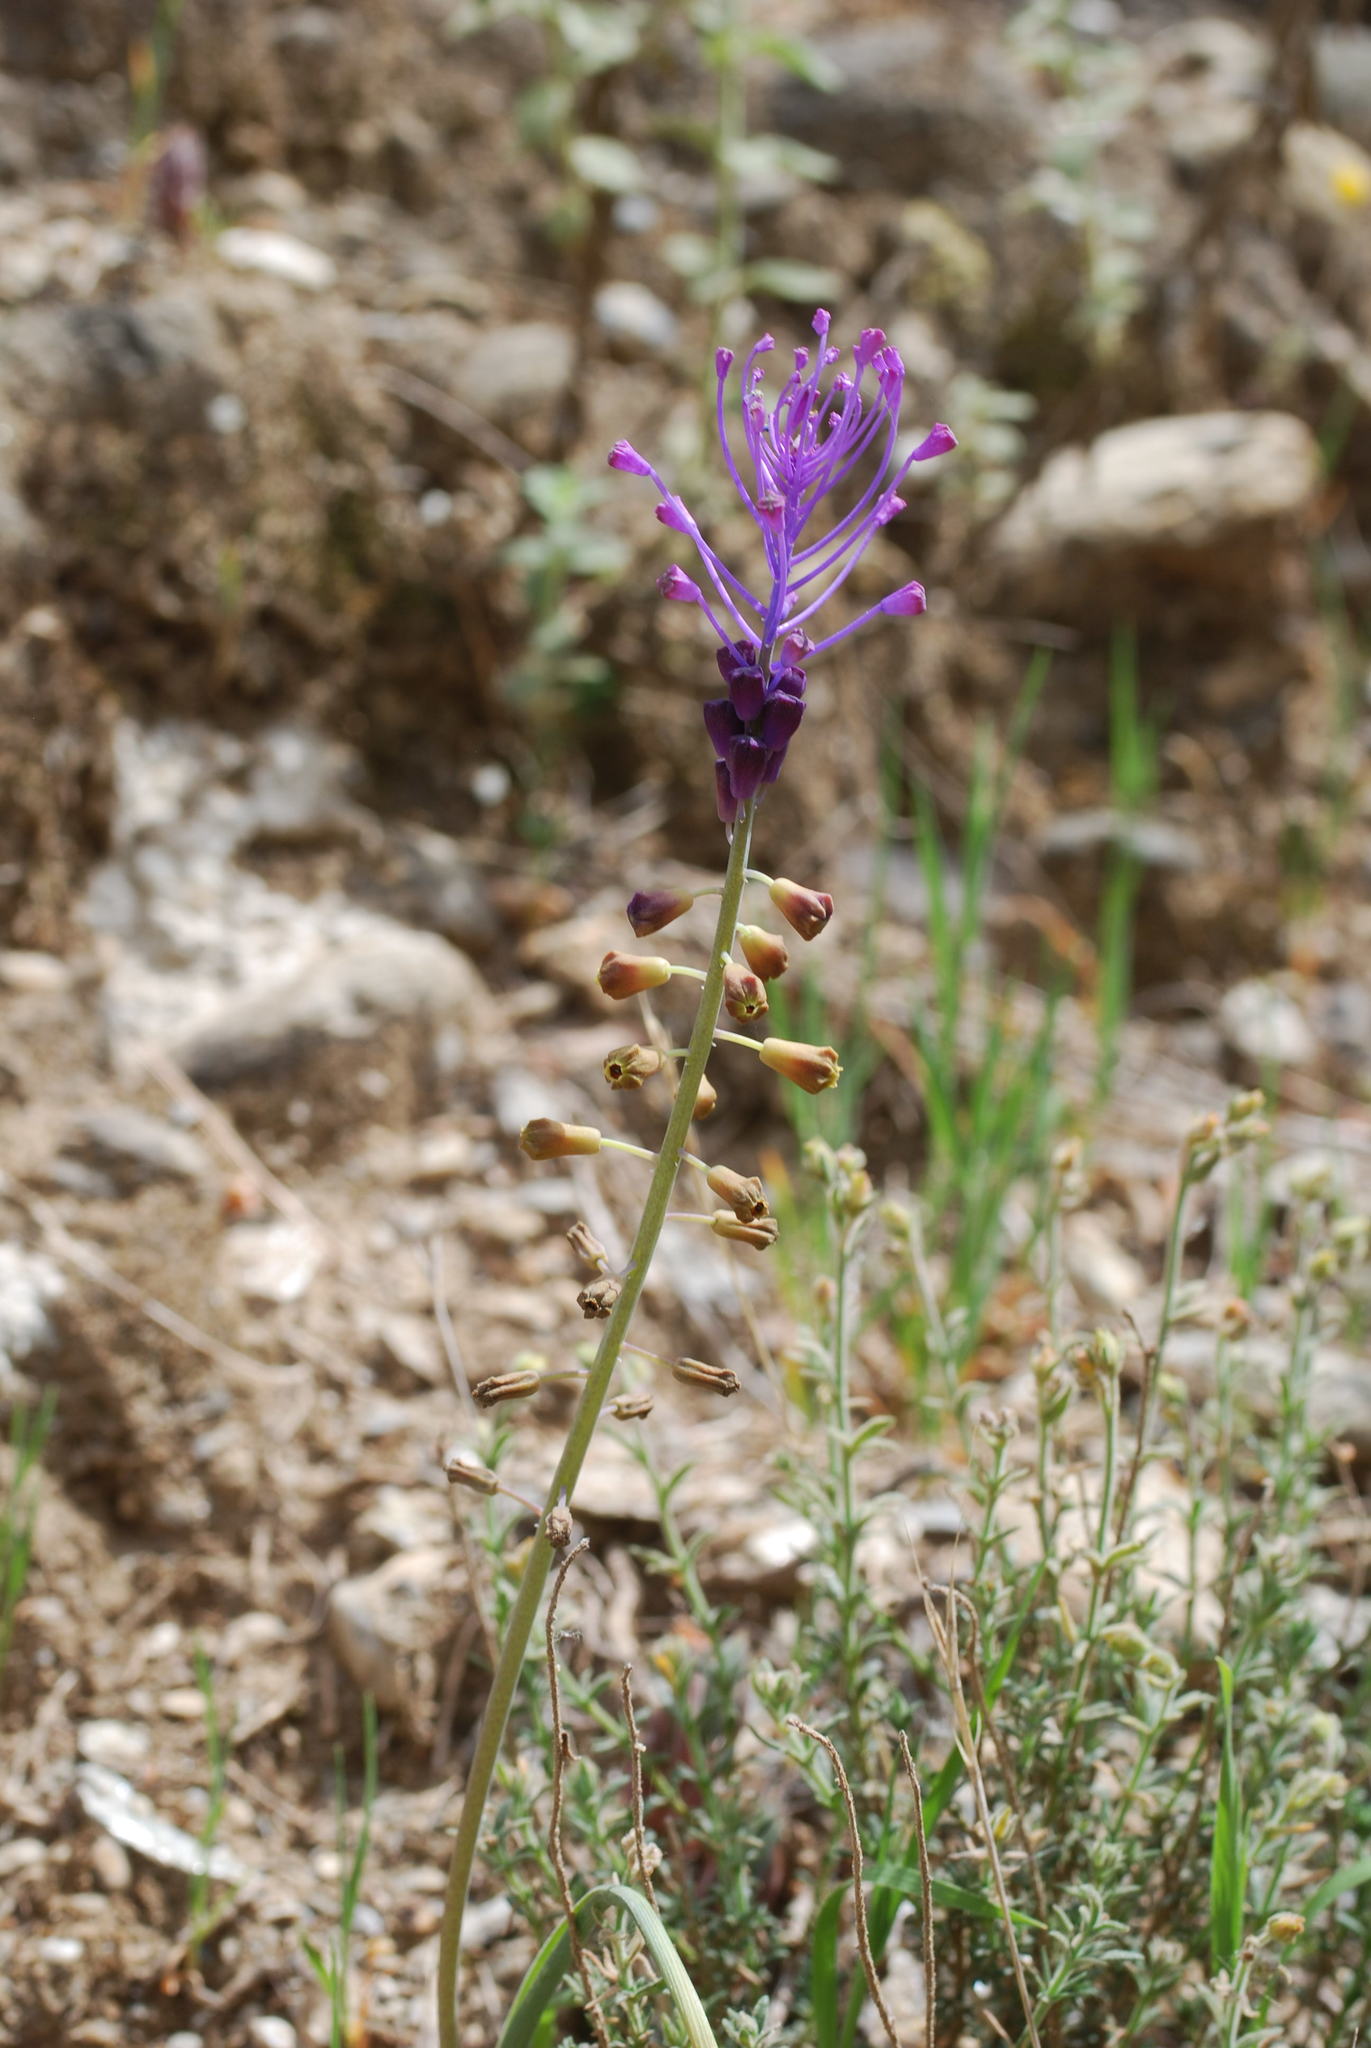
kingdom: Plantae
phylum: Tracheophyta
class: Liliopsida
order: Asparagales
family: Asparagaceae
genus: Muscari
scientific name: Muscari comosum
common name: Tassel hyacinth
